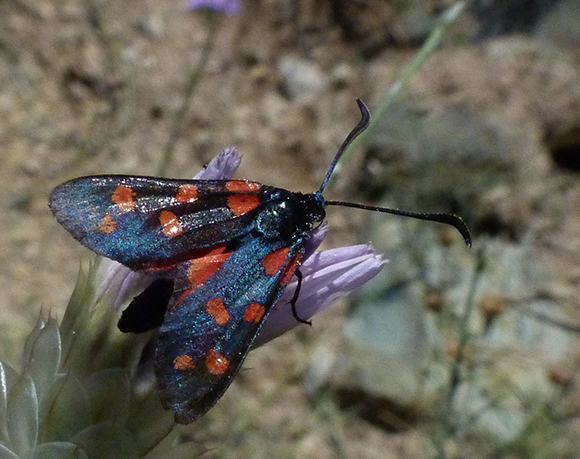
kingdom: Animalia
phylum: Arthropoda
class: Insecta
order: Lepidoptera
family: Zygaenidae
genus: Zygaena
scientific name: Zygaena transalpina
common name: Southern six spot burnet
